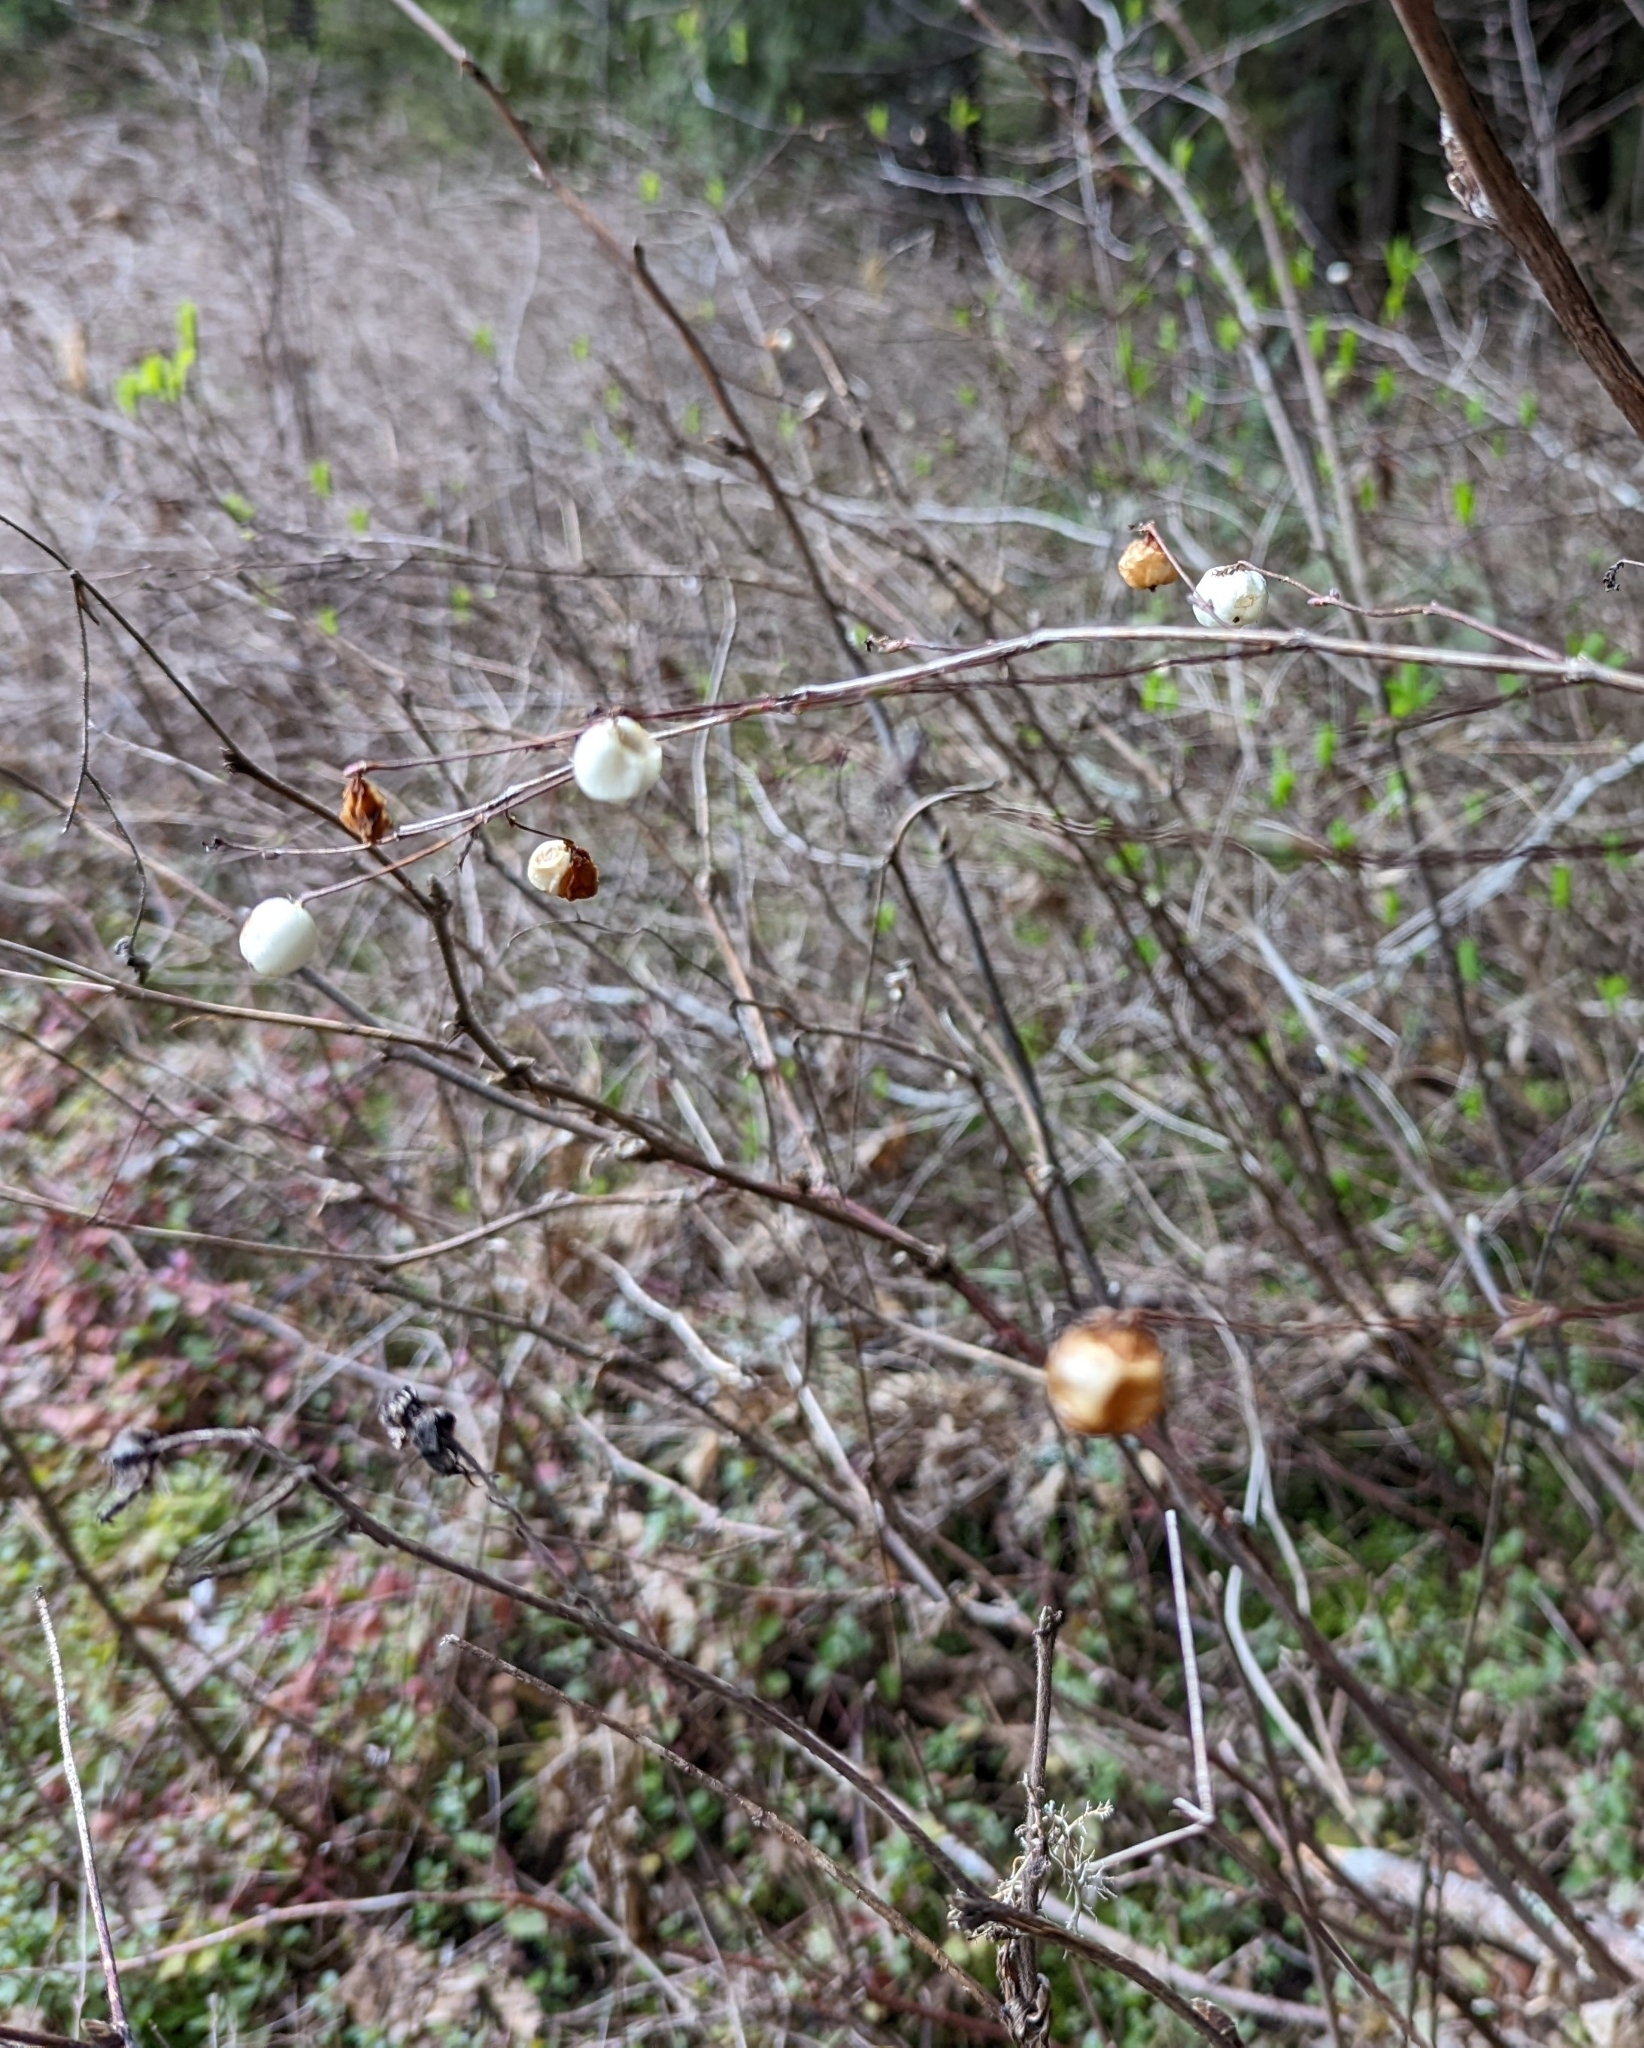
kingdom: Plantae
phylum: Tracheophyta
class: Magnoliopsida
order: Dipsacales
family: Caprifoliaceae
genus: Symphoricarpos
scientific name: Symphoricarpos albus
